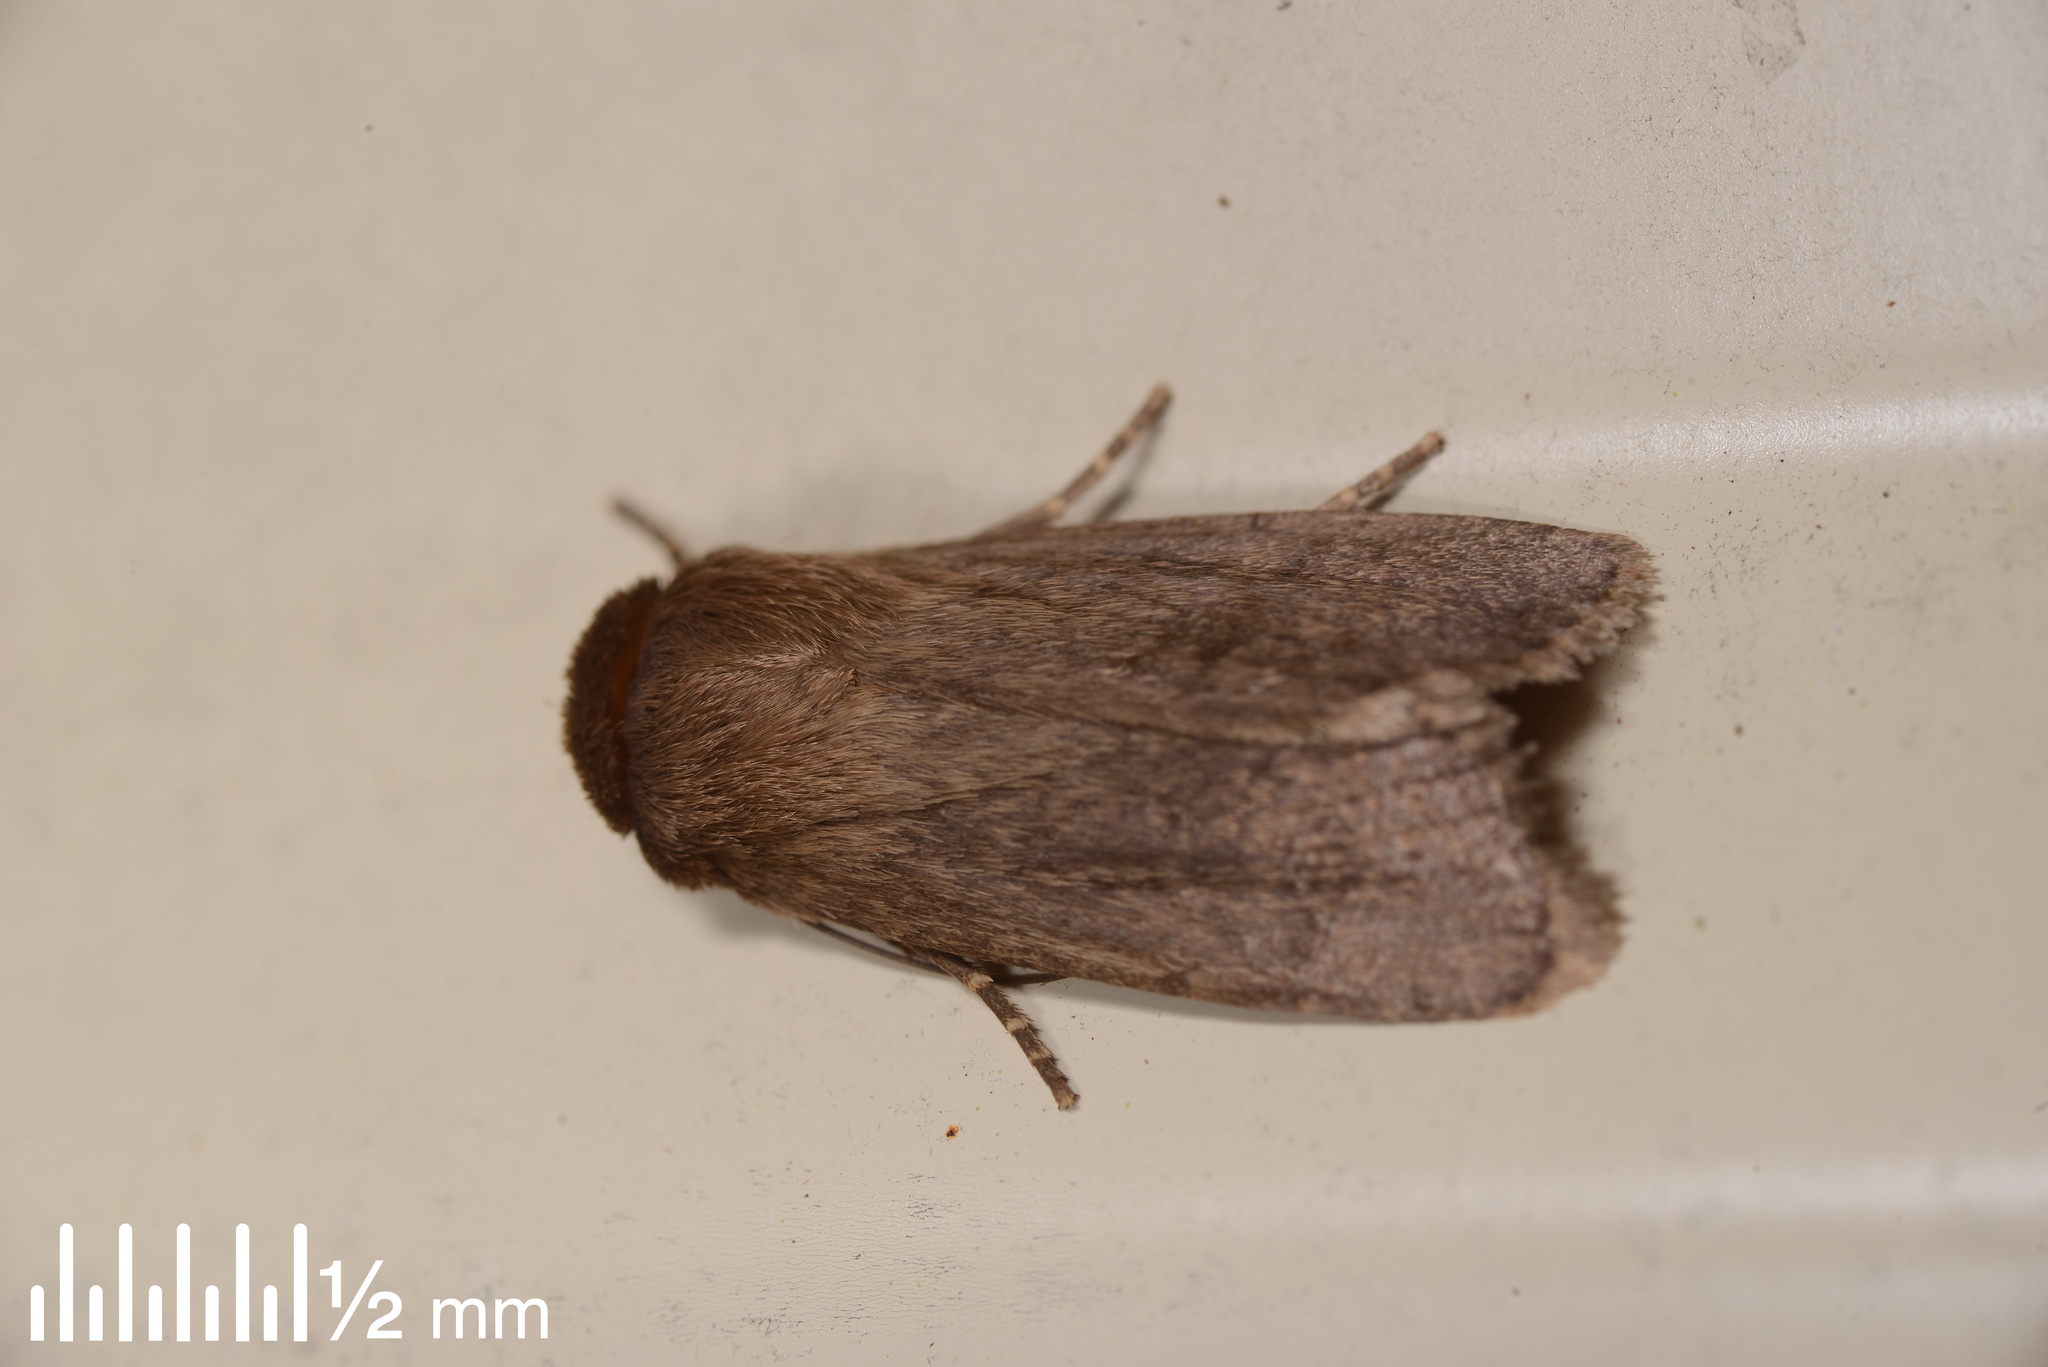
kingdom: Animalia
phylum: Arthropoda
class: Insecta
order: Lepidoptera
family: Noctuidae
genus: Bityla
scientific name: Bityla defigurata
